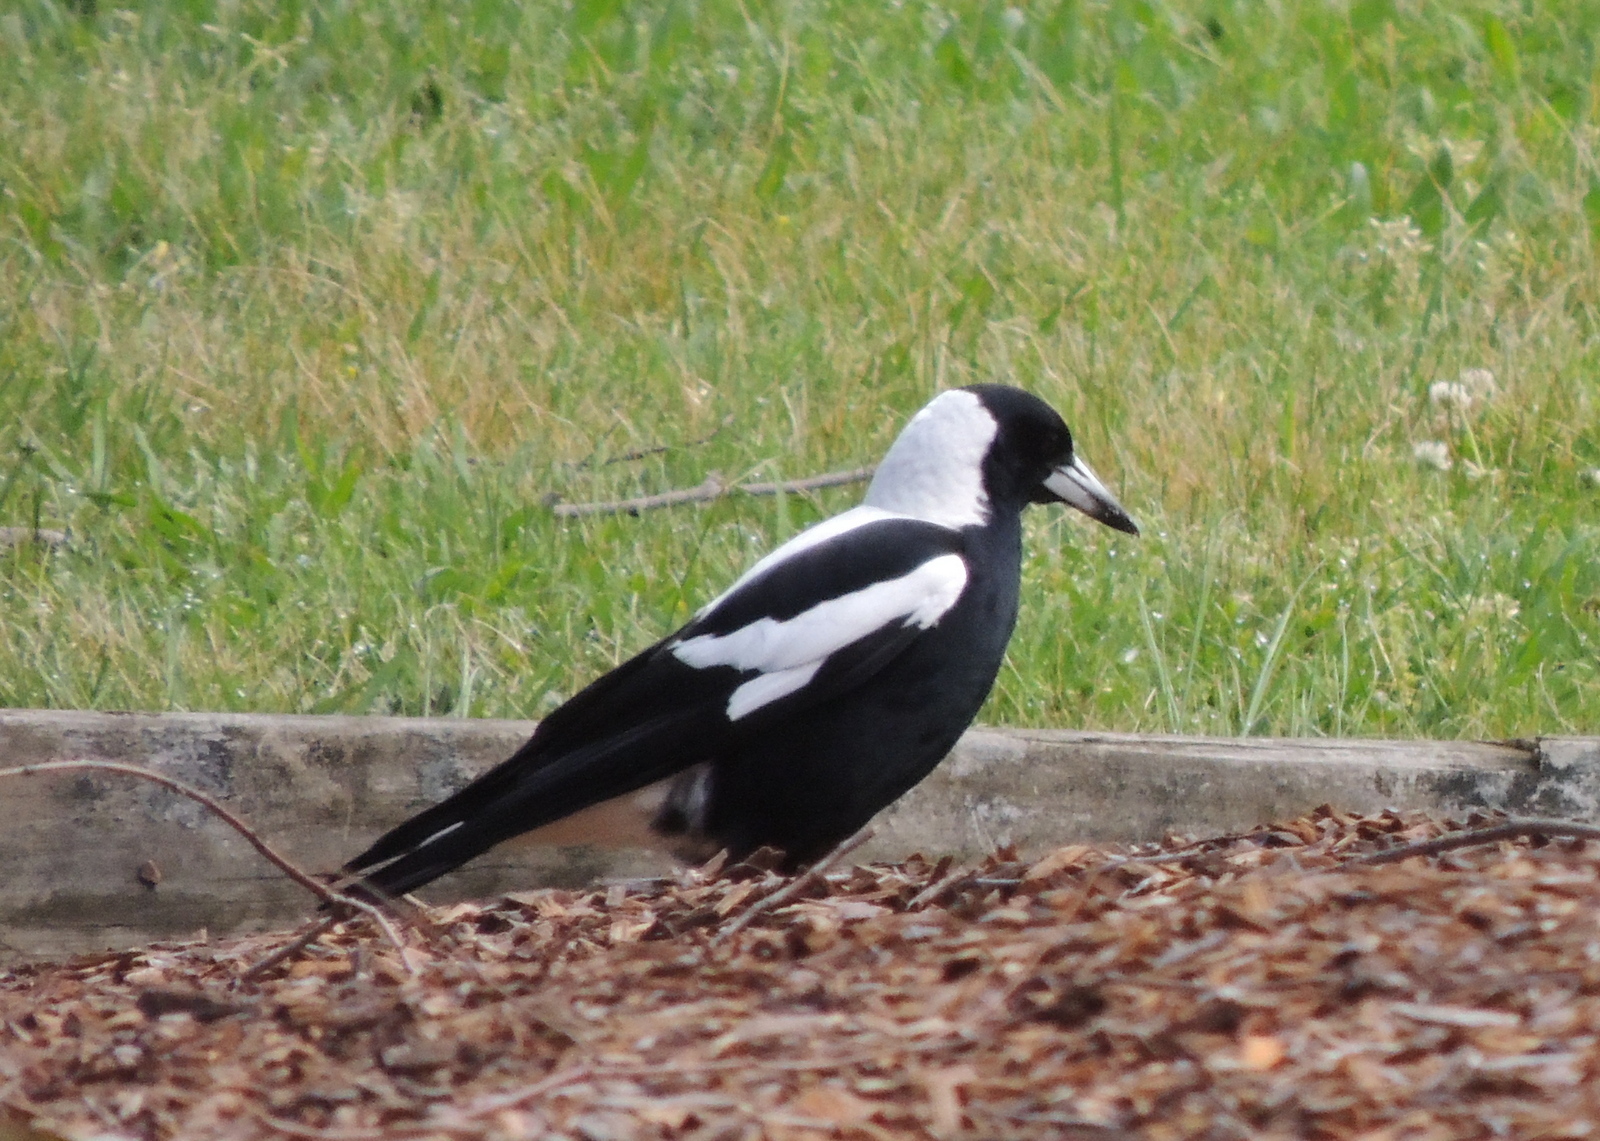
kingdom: Animalia
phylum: Chordata
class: Aves
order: Passeriformes
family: Cracticidae
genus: Gymnorhina
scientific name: Gymnorhina tibicen
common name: Australian magpie
